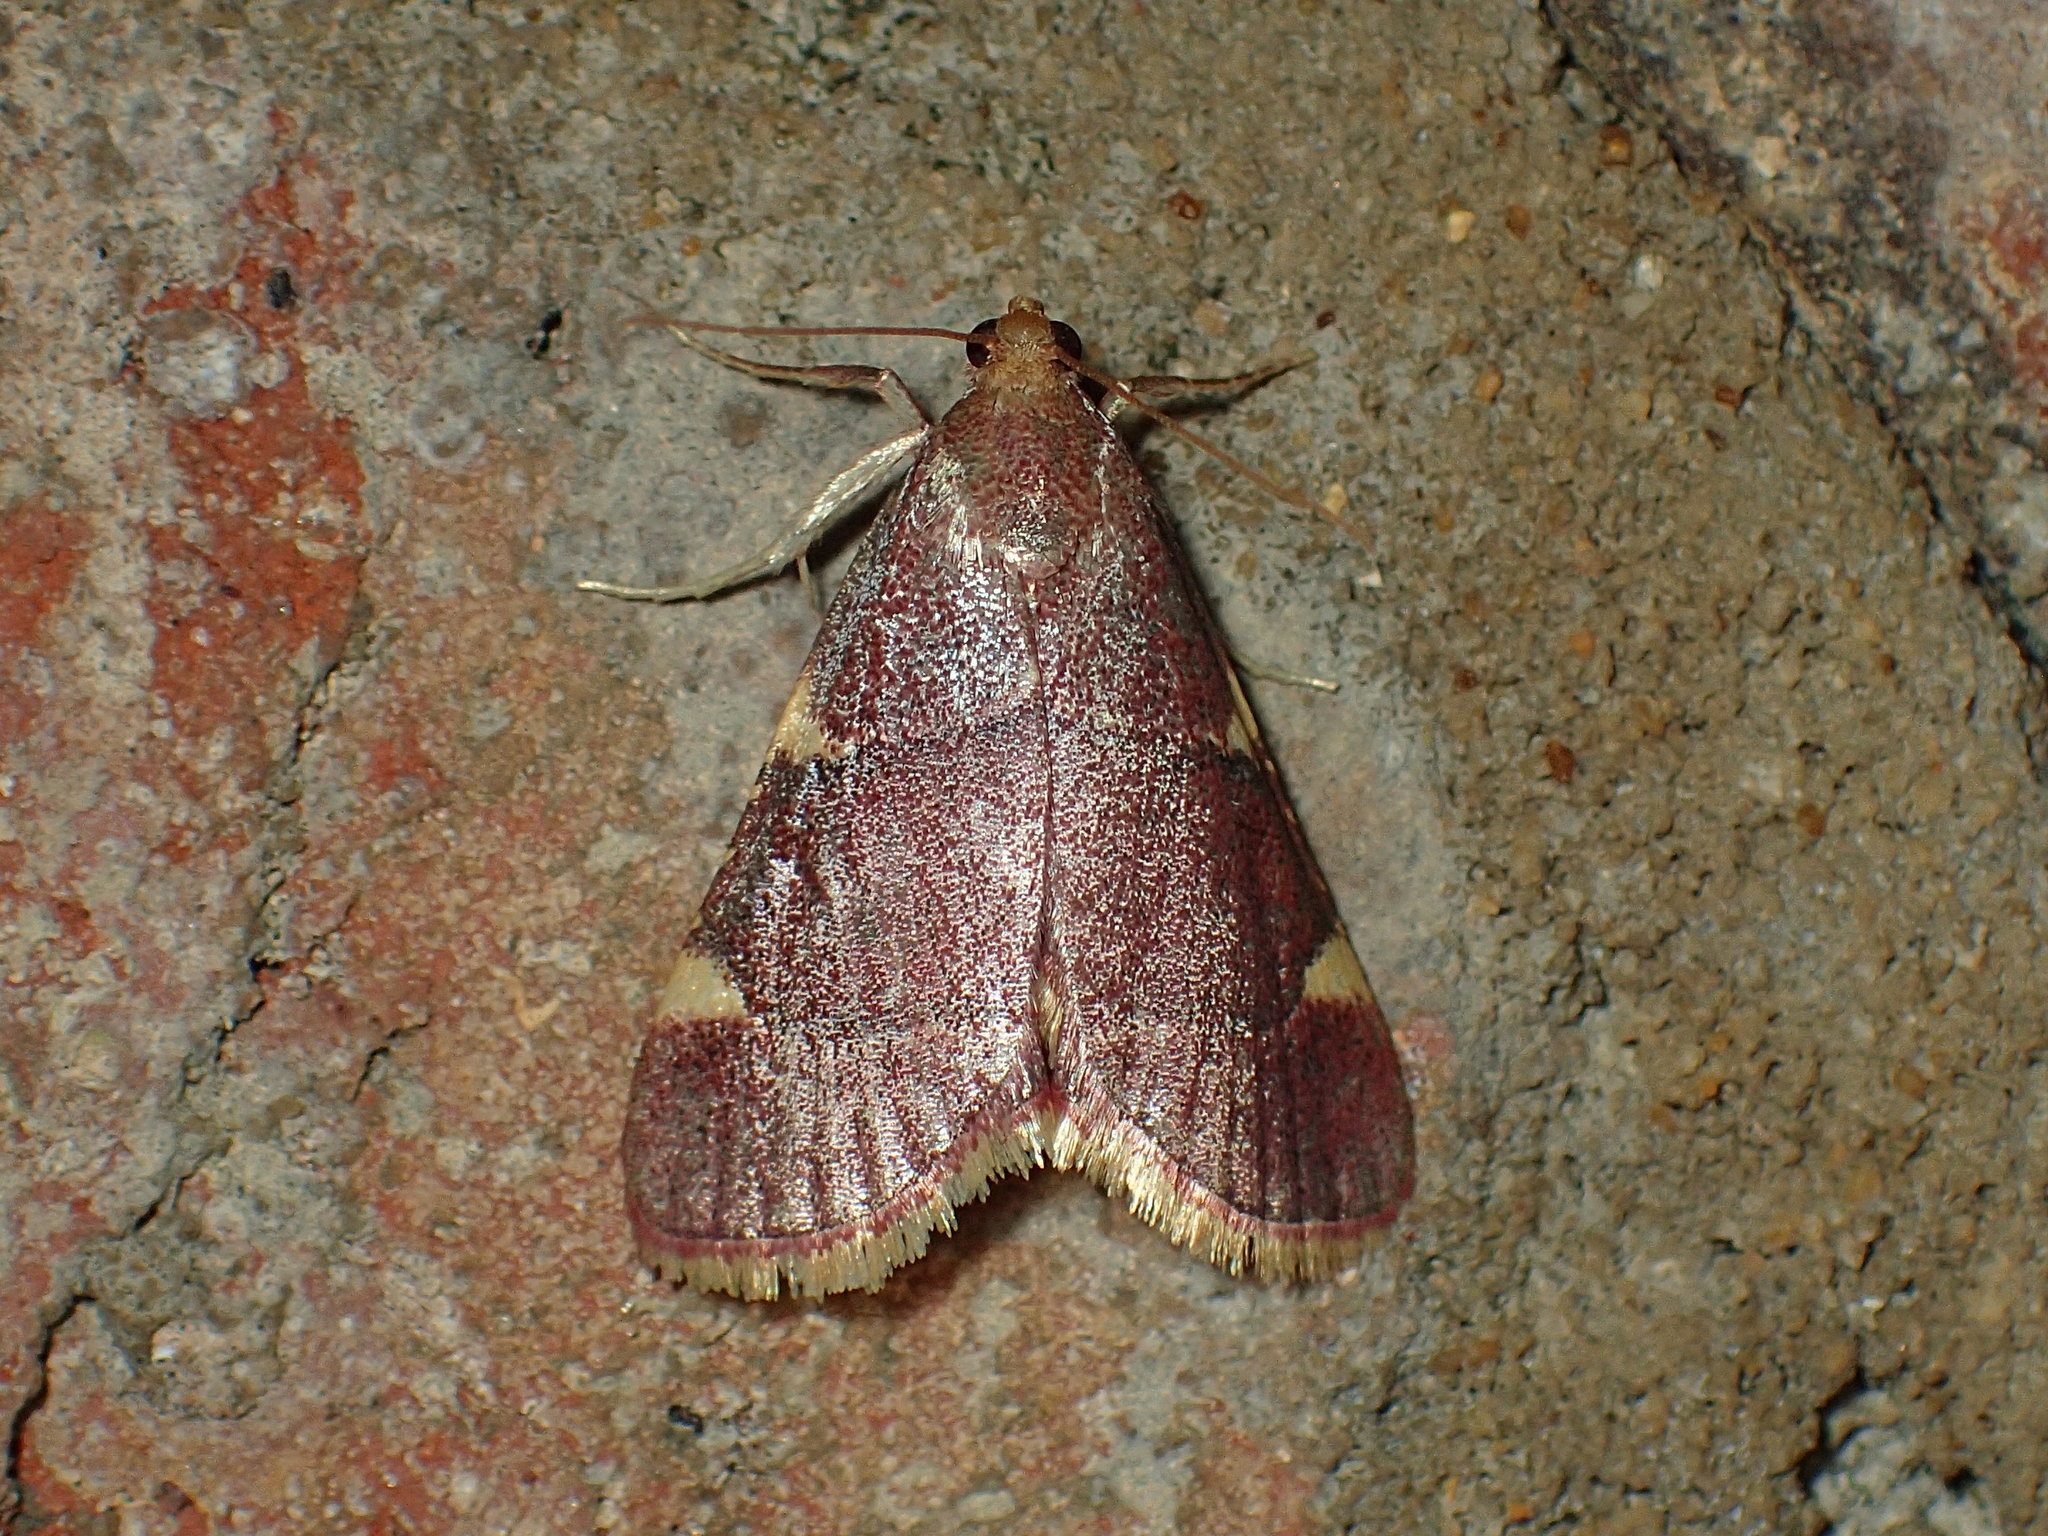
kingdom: Animalia
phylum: Arthropoda
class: Insecta
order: Lepidoptera
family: Pyralidae
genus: Hypsopygia
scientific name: Hypsopygia olinalis
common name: Yellow-fringed dolichomia moth
